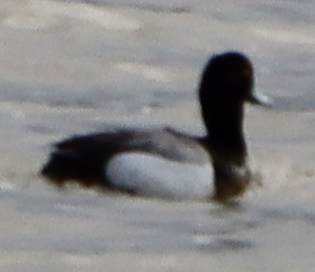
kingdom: Animalia
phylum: Chordata
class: Aves
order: Anseriformes
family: Anatidae
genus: Aythya
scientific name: Aythya affinis
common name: Lesser scaup
